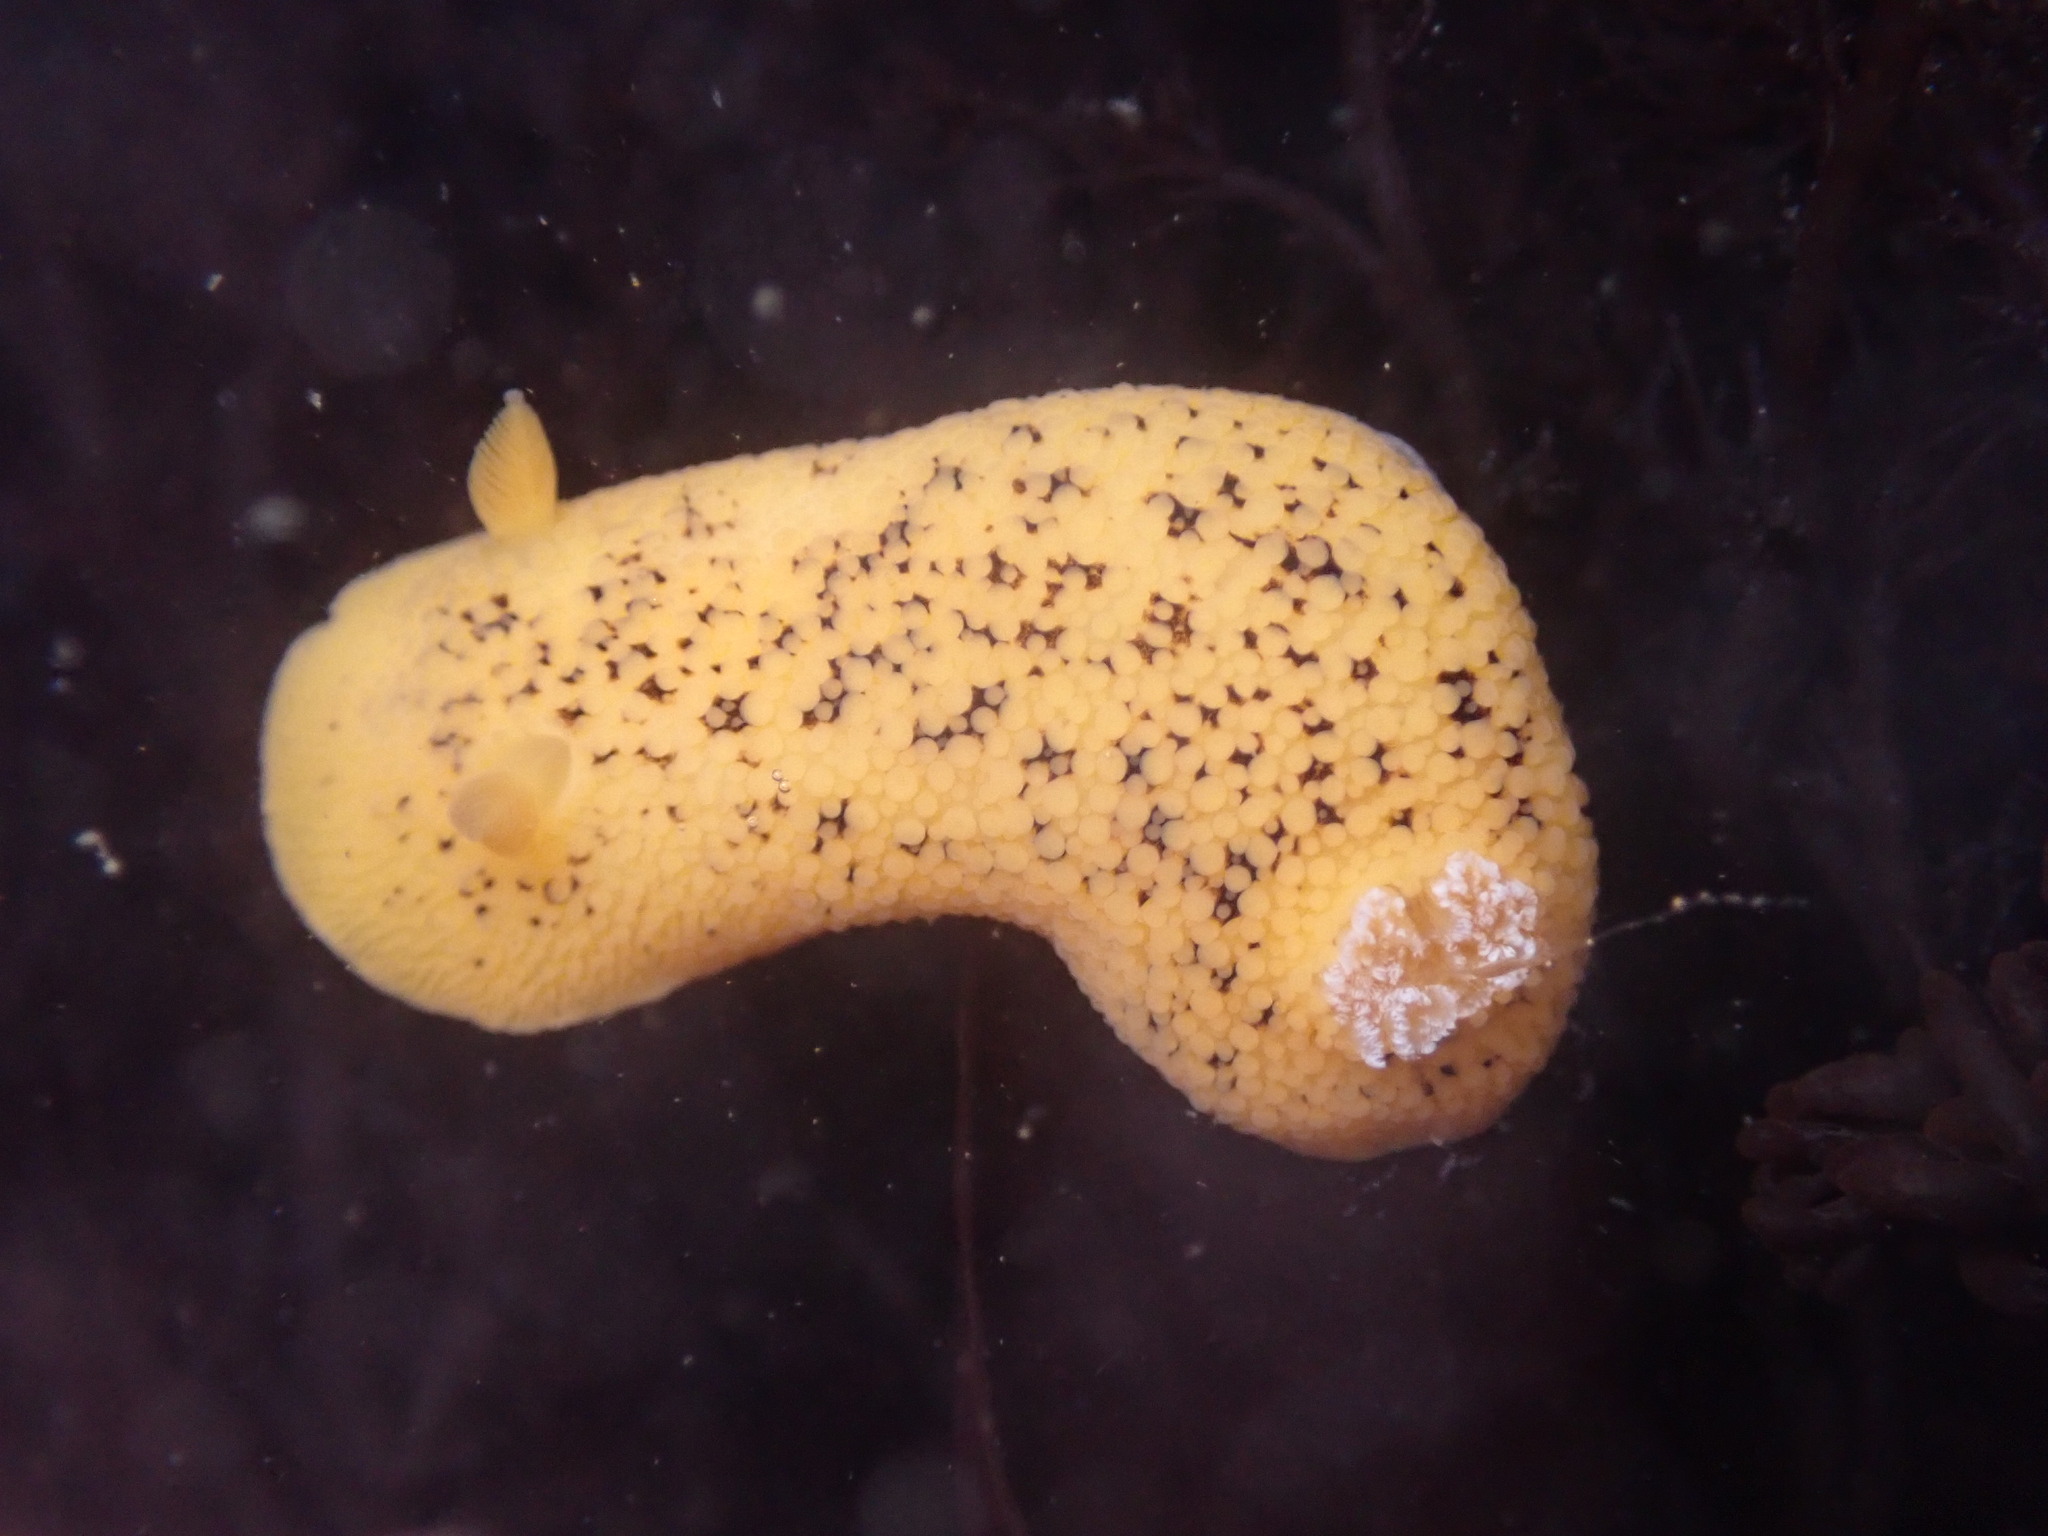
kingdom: Animalia
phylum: Mollusca
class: Gastropoda
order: Nudibranchia
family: Discodorididae
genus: Peltodoris
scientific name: Peltodoris nobilis
